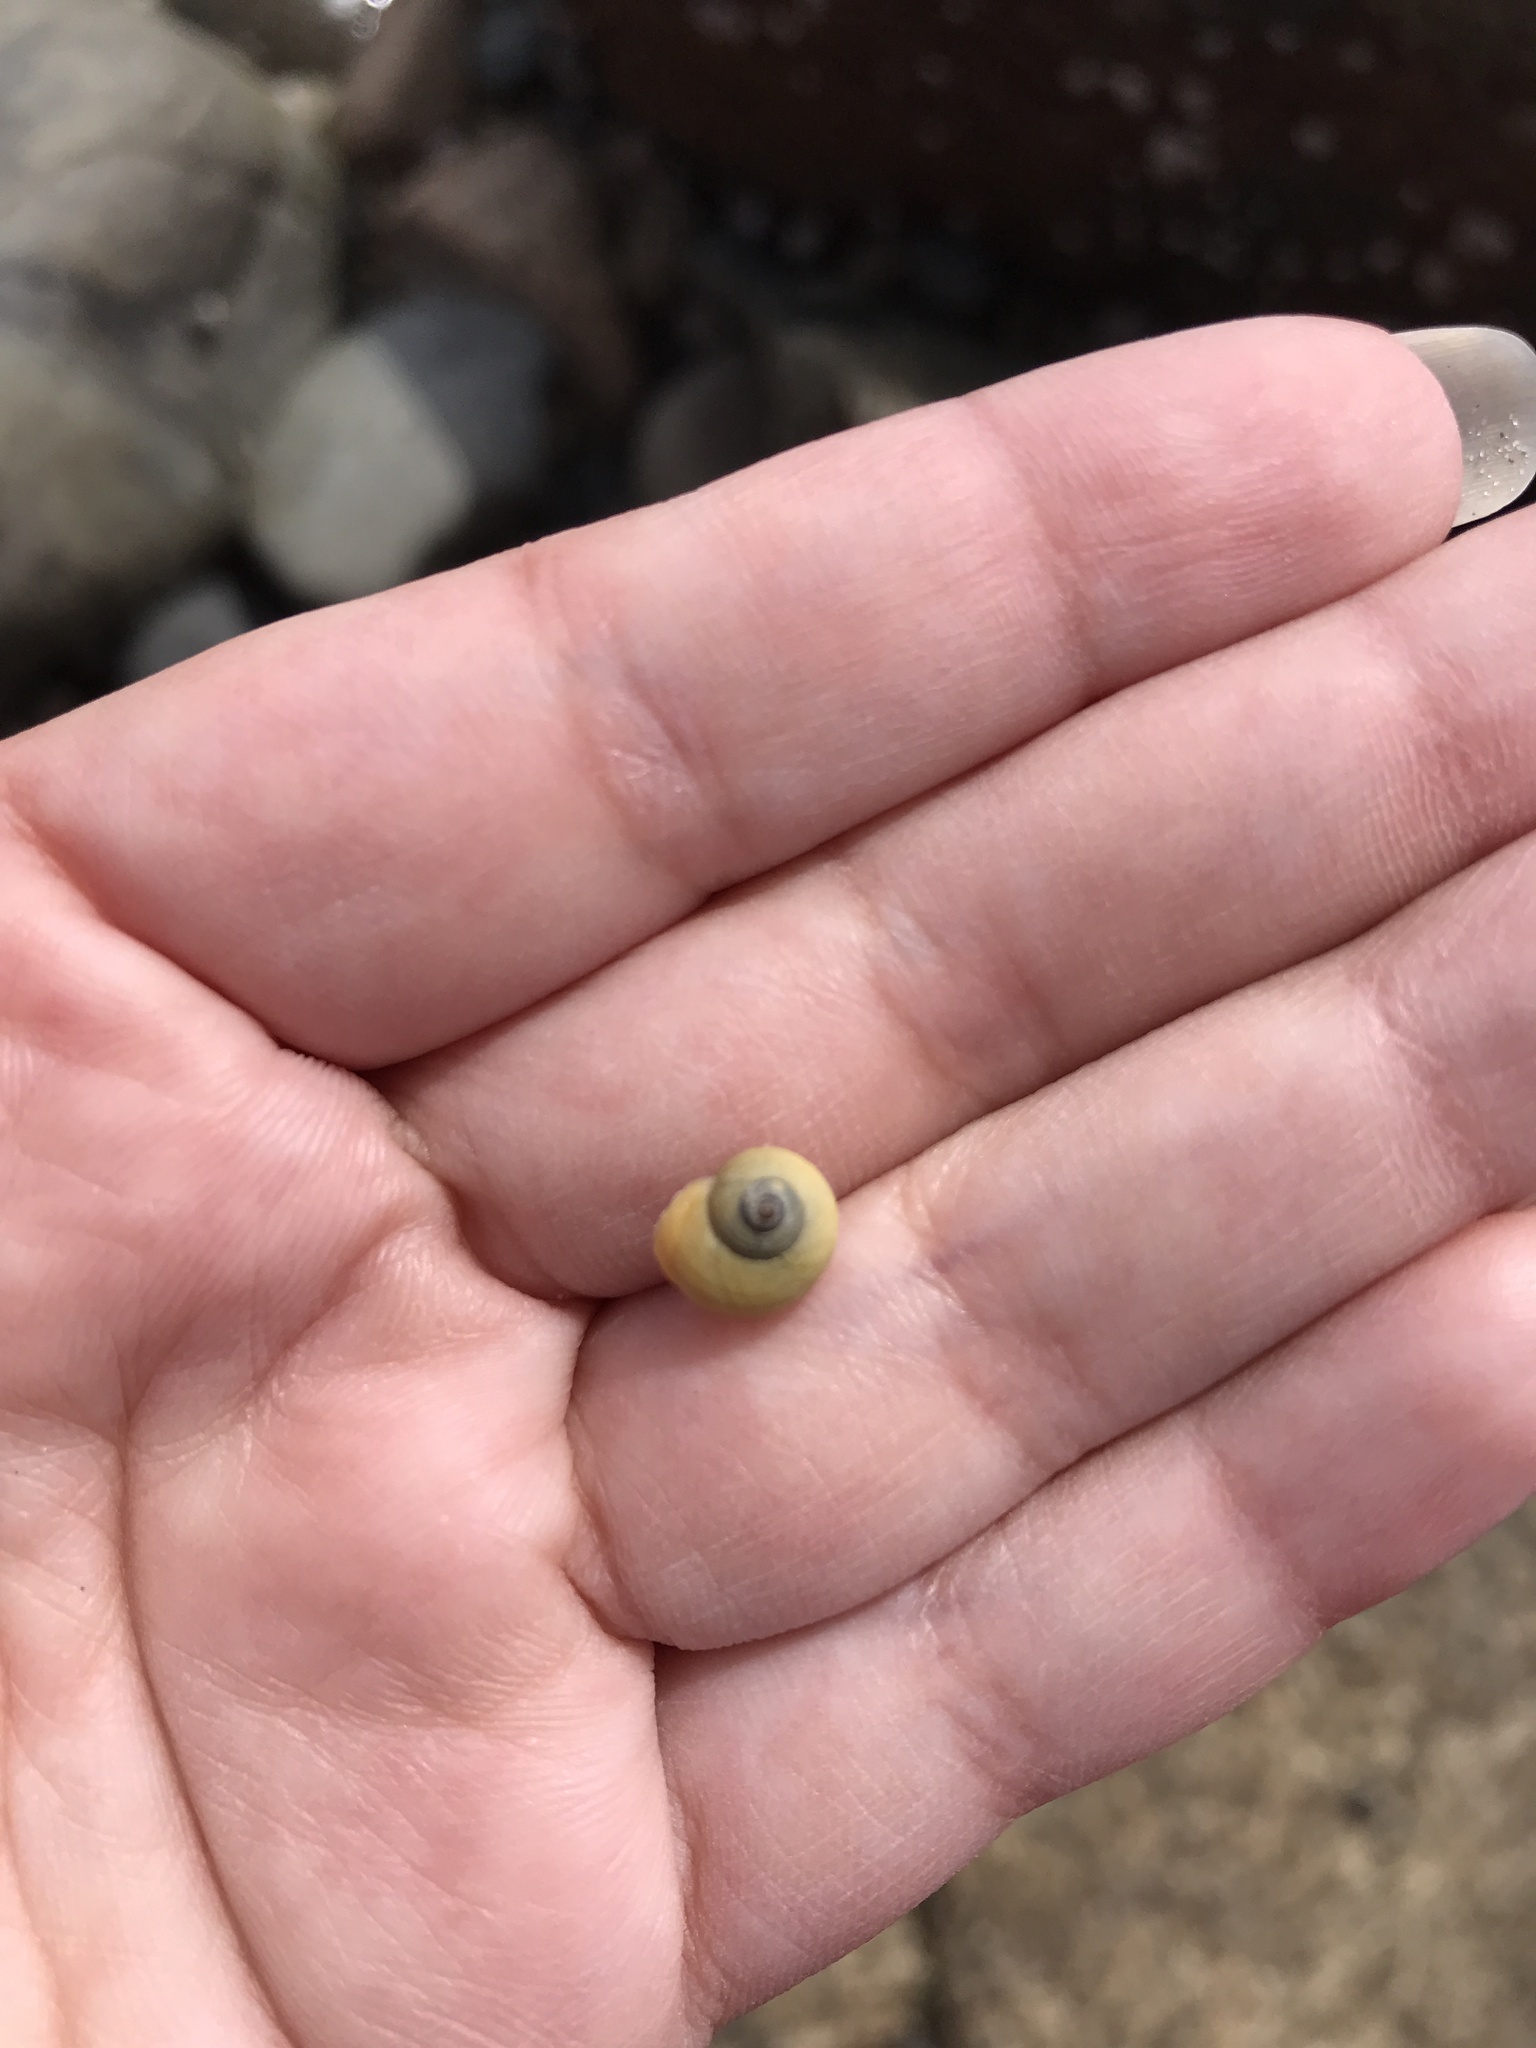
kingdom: Animalia
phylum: Mollusca
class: Gastropoda
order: Littorinimorpha
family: Littorinidae
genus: Littorina
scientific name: Littorina obtusata
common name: Flat periwinkle
